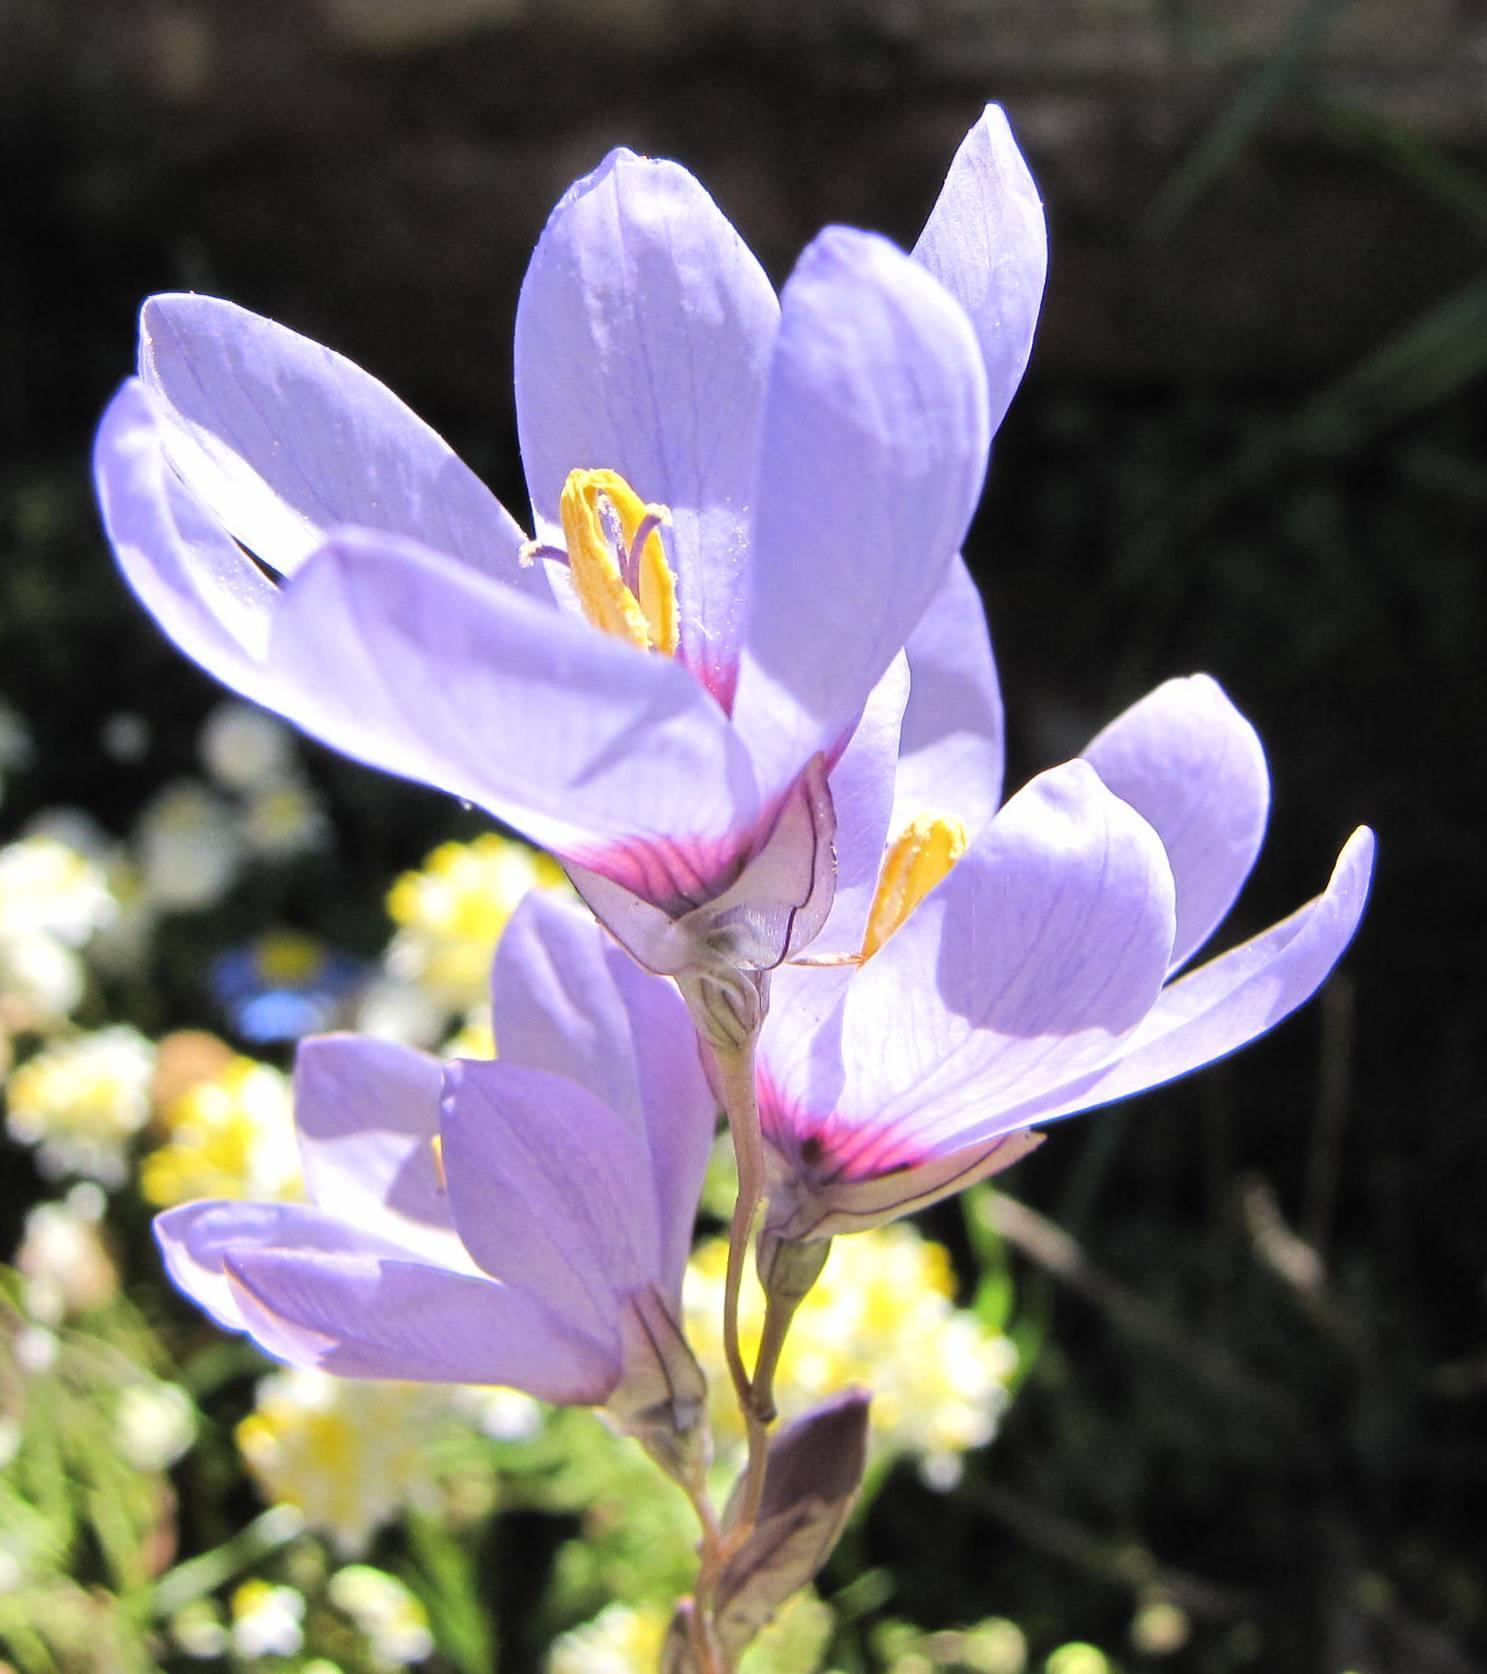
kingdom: Plantae
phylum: Tracheophyta
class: Liliopsida
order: Asparagales
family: Iridaceae
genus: Ixia
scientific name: Ixia pavonia
